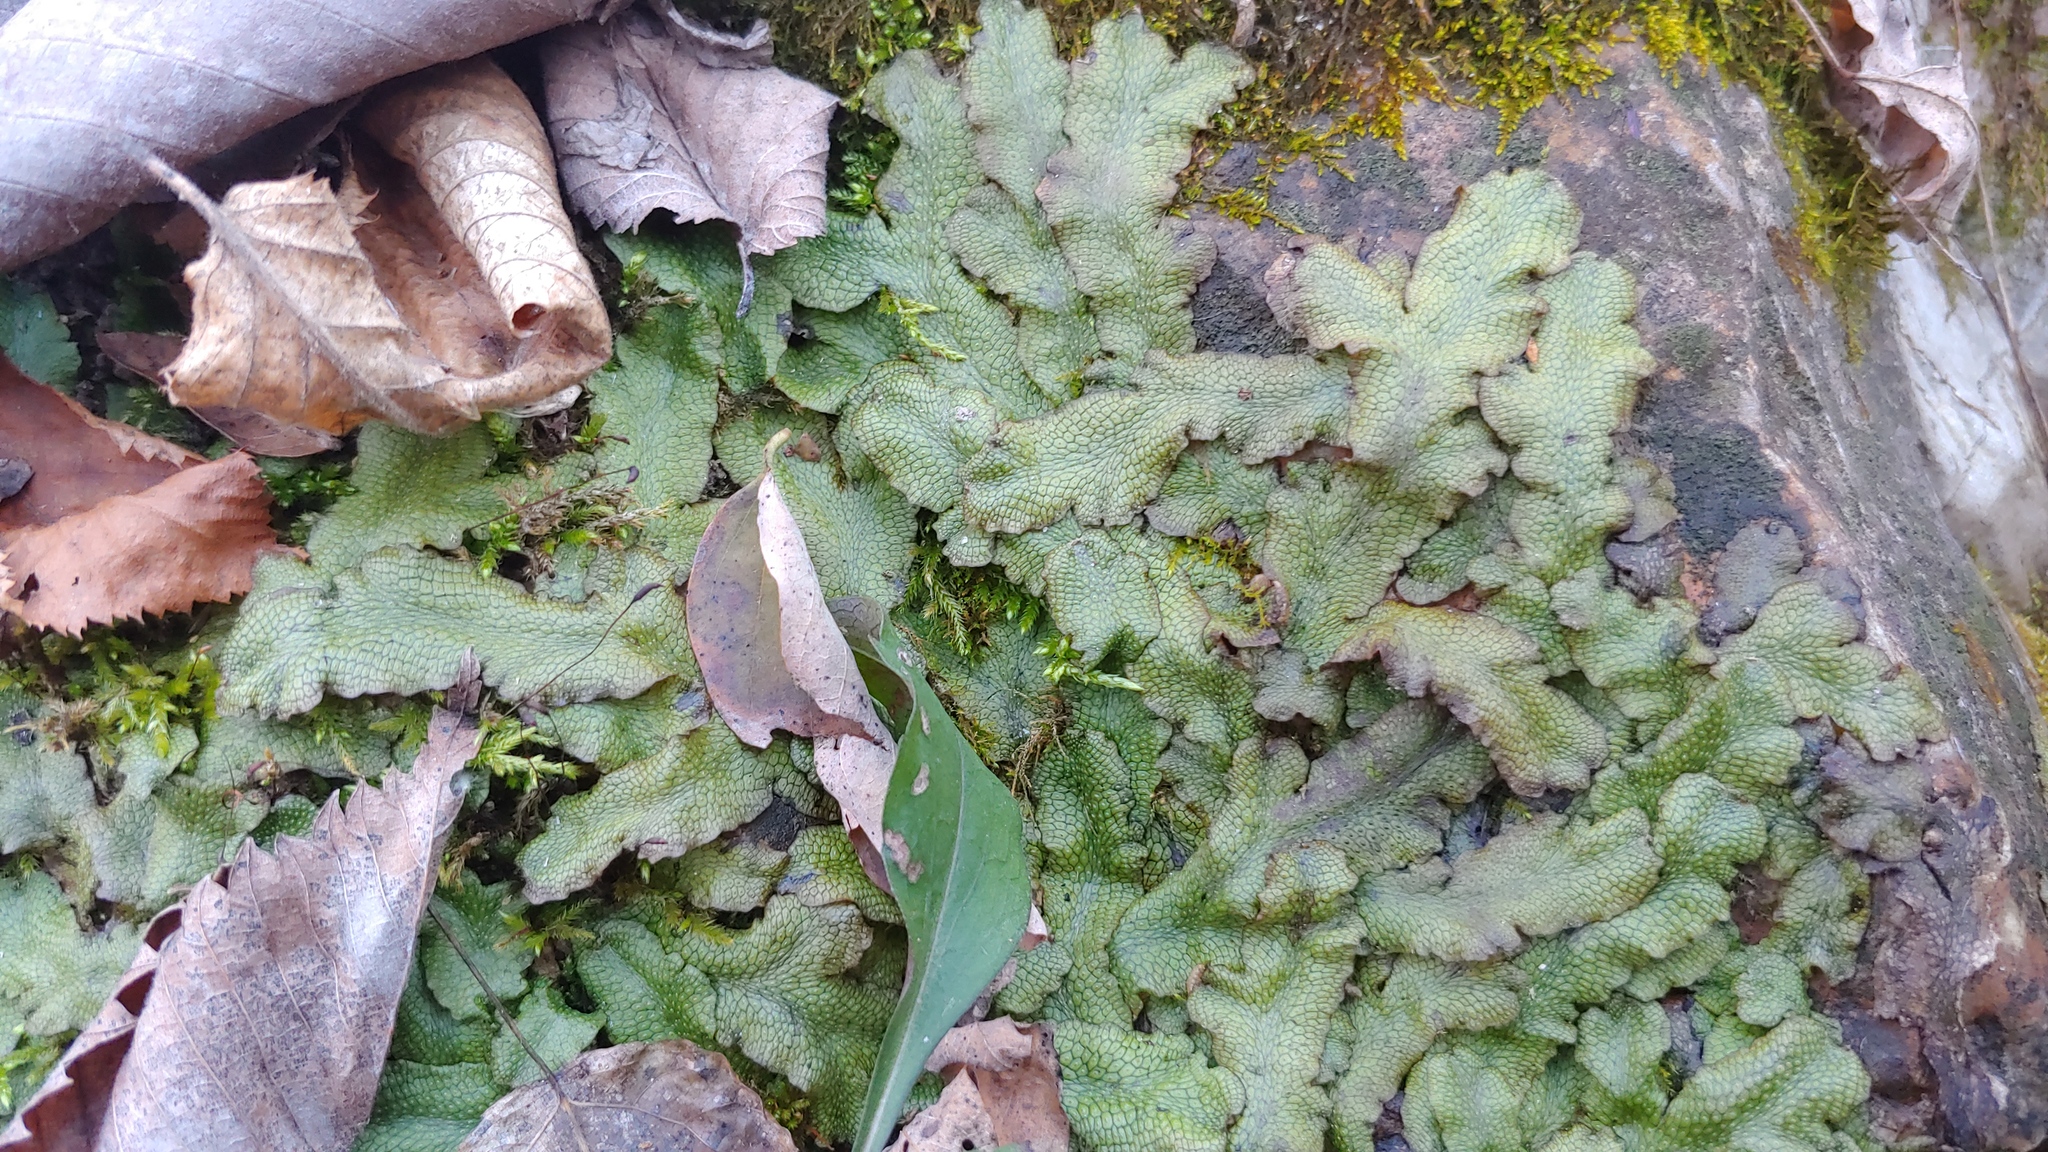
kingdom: Plantae
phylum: Marchantiophyta
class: Marchantiopsida
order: Marchantiales
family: Conocephalaceae
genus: Conocephalum
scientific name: Conocephalum salebrosum
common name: Cat-tongue liverwort
